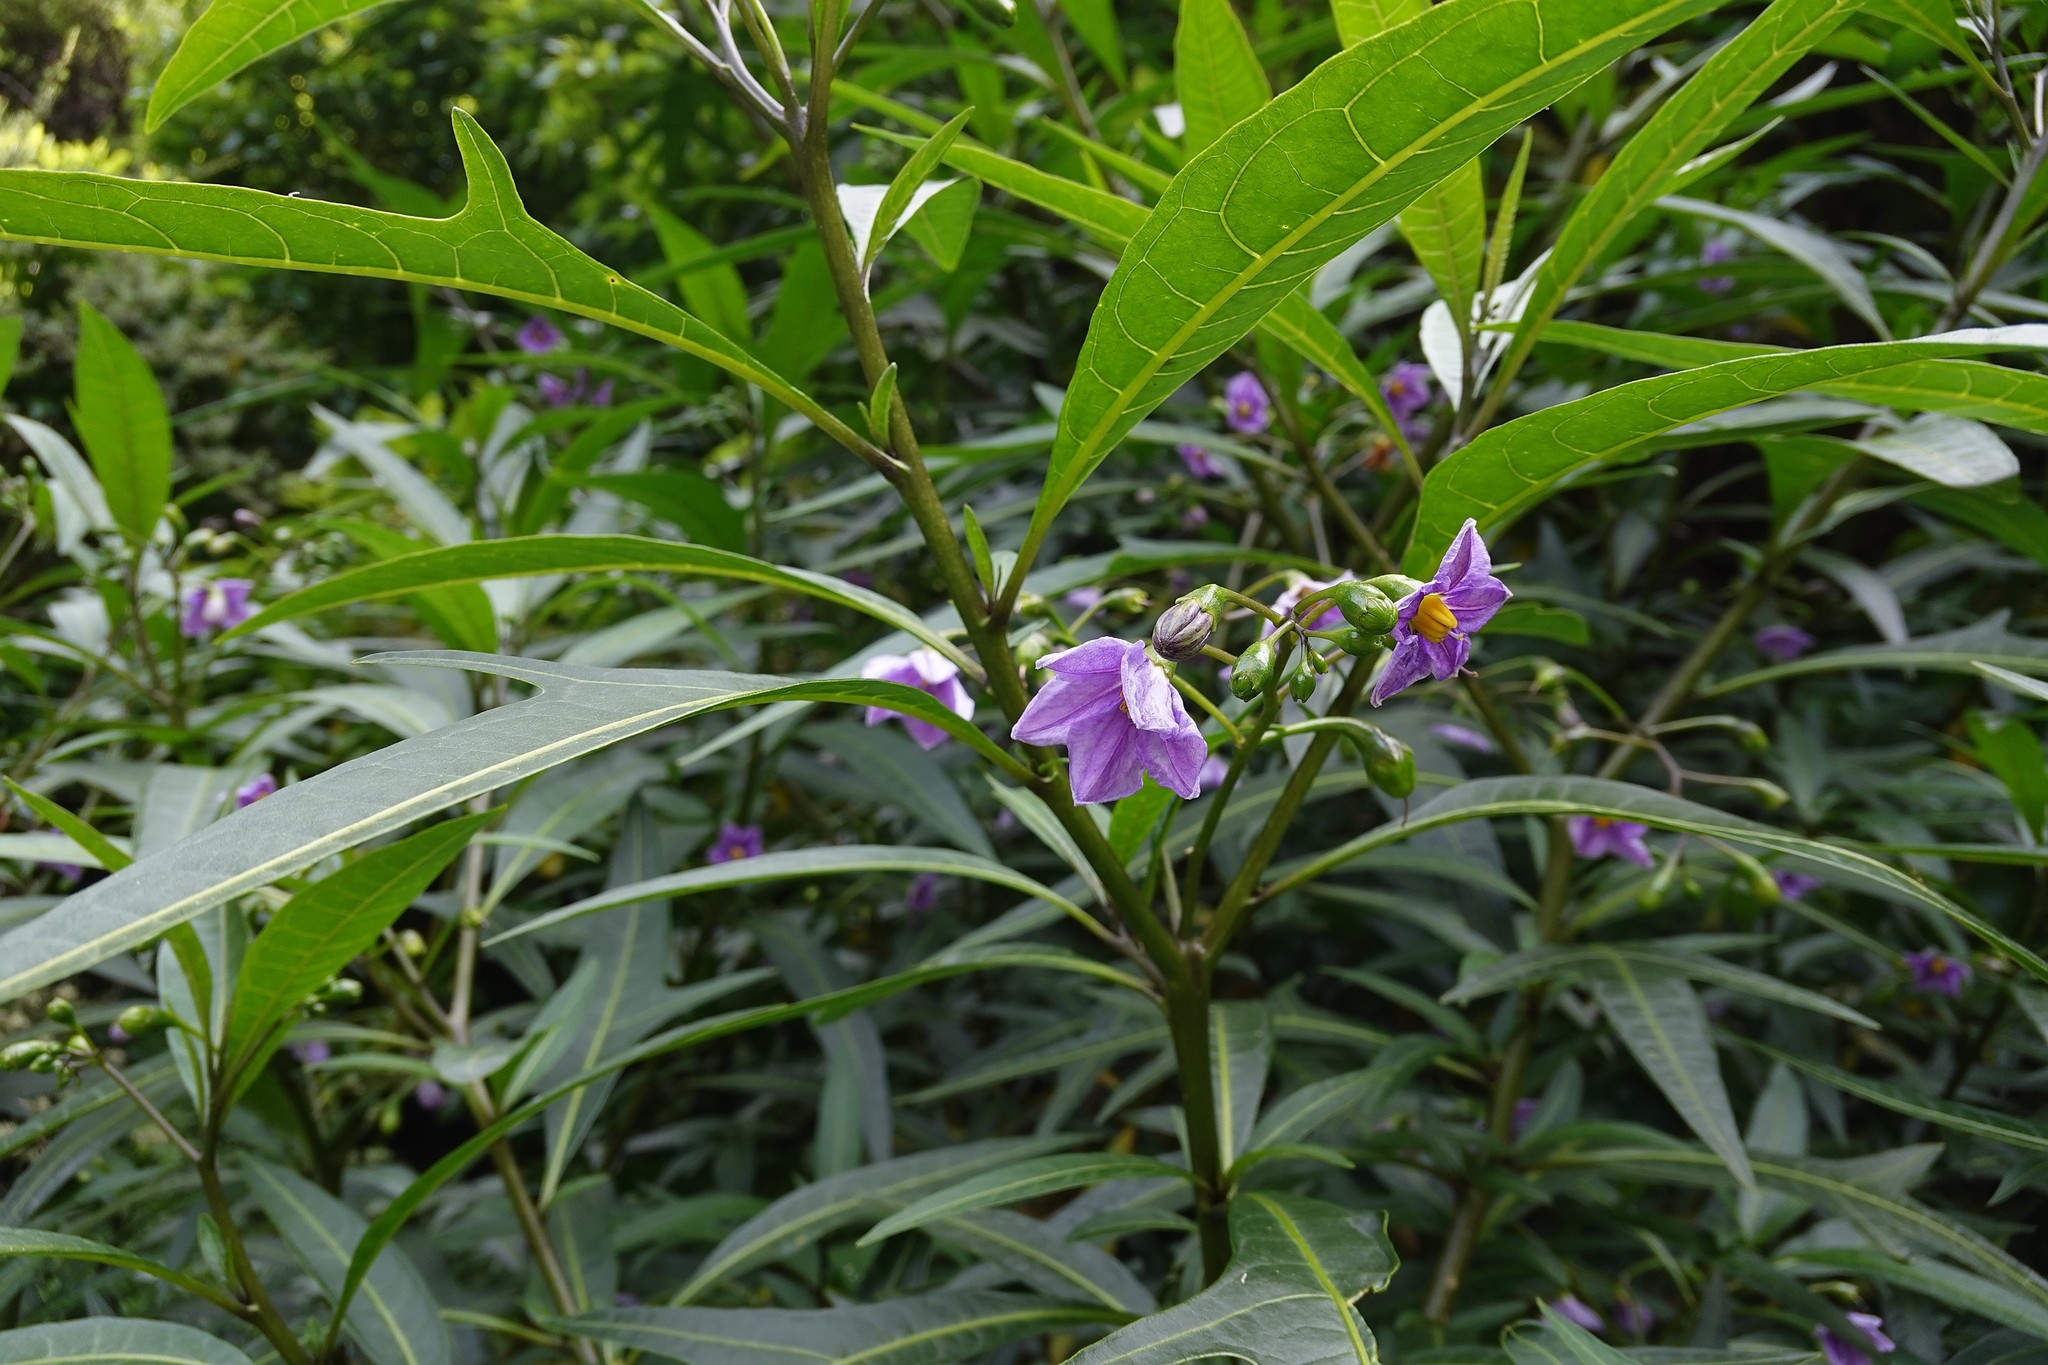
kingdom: Plantae
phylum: Tracheophyta
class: Magnoliopsida
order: Solanales
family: Solanaceae
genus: Solanum
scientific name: Solanum aviculare
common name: New zealand nightshade
